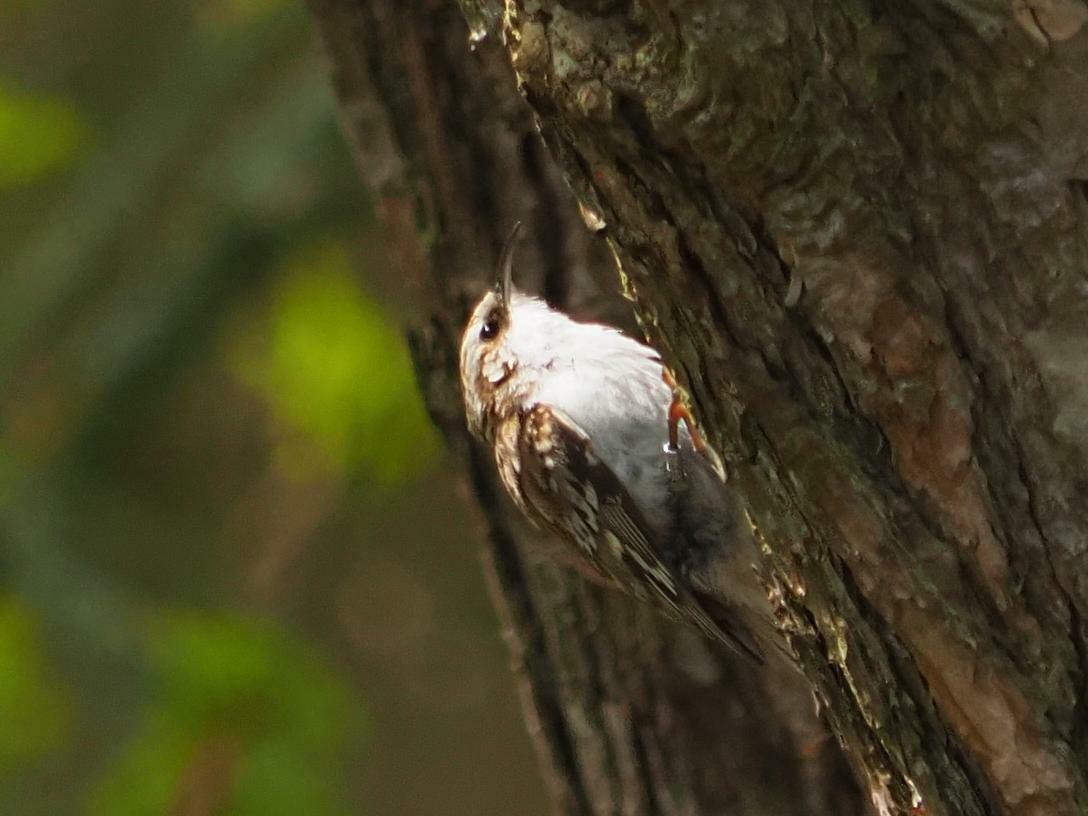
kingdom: Animalia
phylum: Chordata
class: Aves
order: Passeriformes
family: Certhiidae
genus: Certhia
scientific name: Certhia familiaris
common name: Eurasian treecreeper
